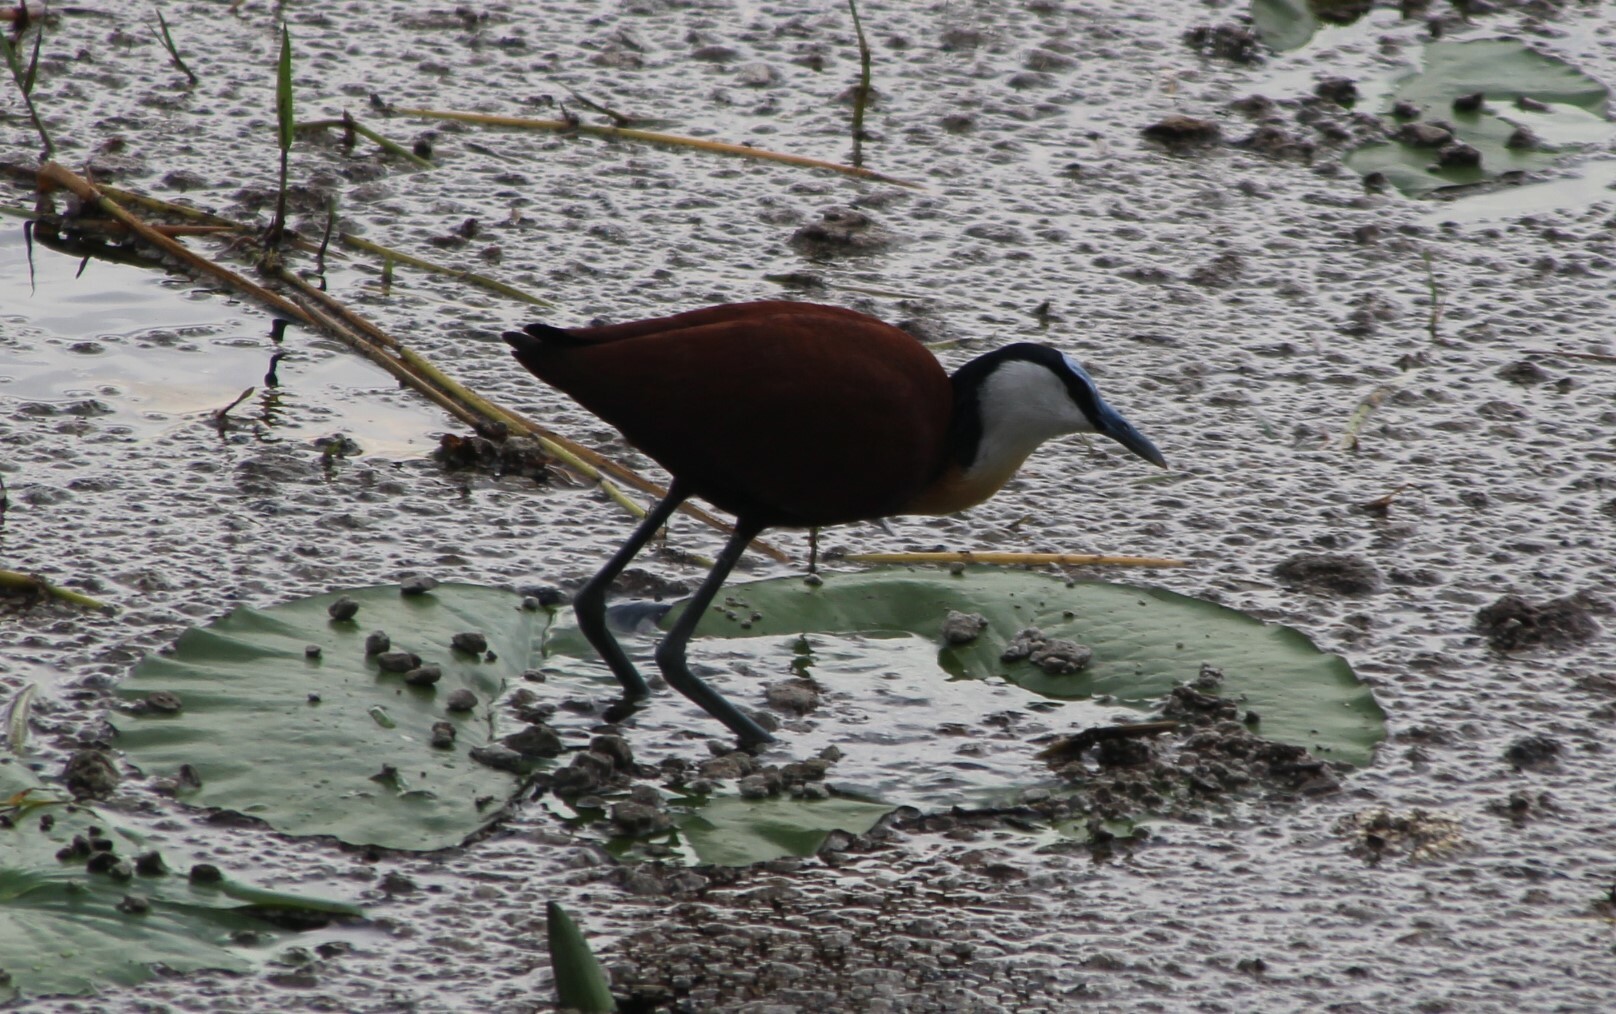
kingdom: Animalia
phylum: Chordata
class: Aves
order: Charadriiformes
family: Jacanidae
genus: Actophilornis
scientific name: Actophilornis africanus
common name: African jacana
